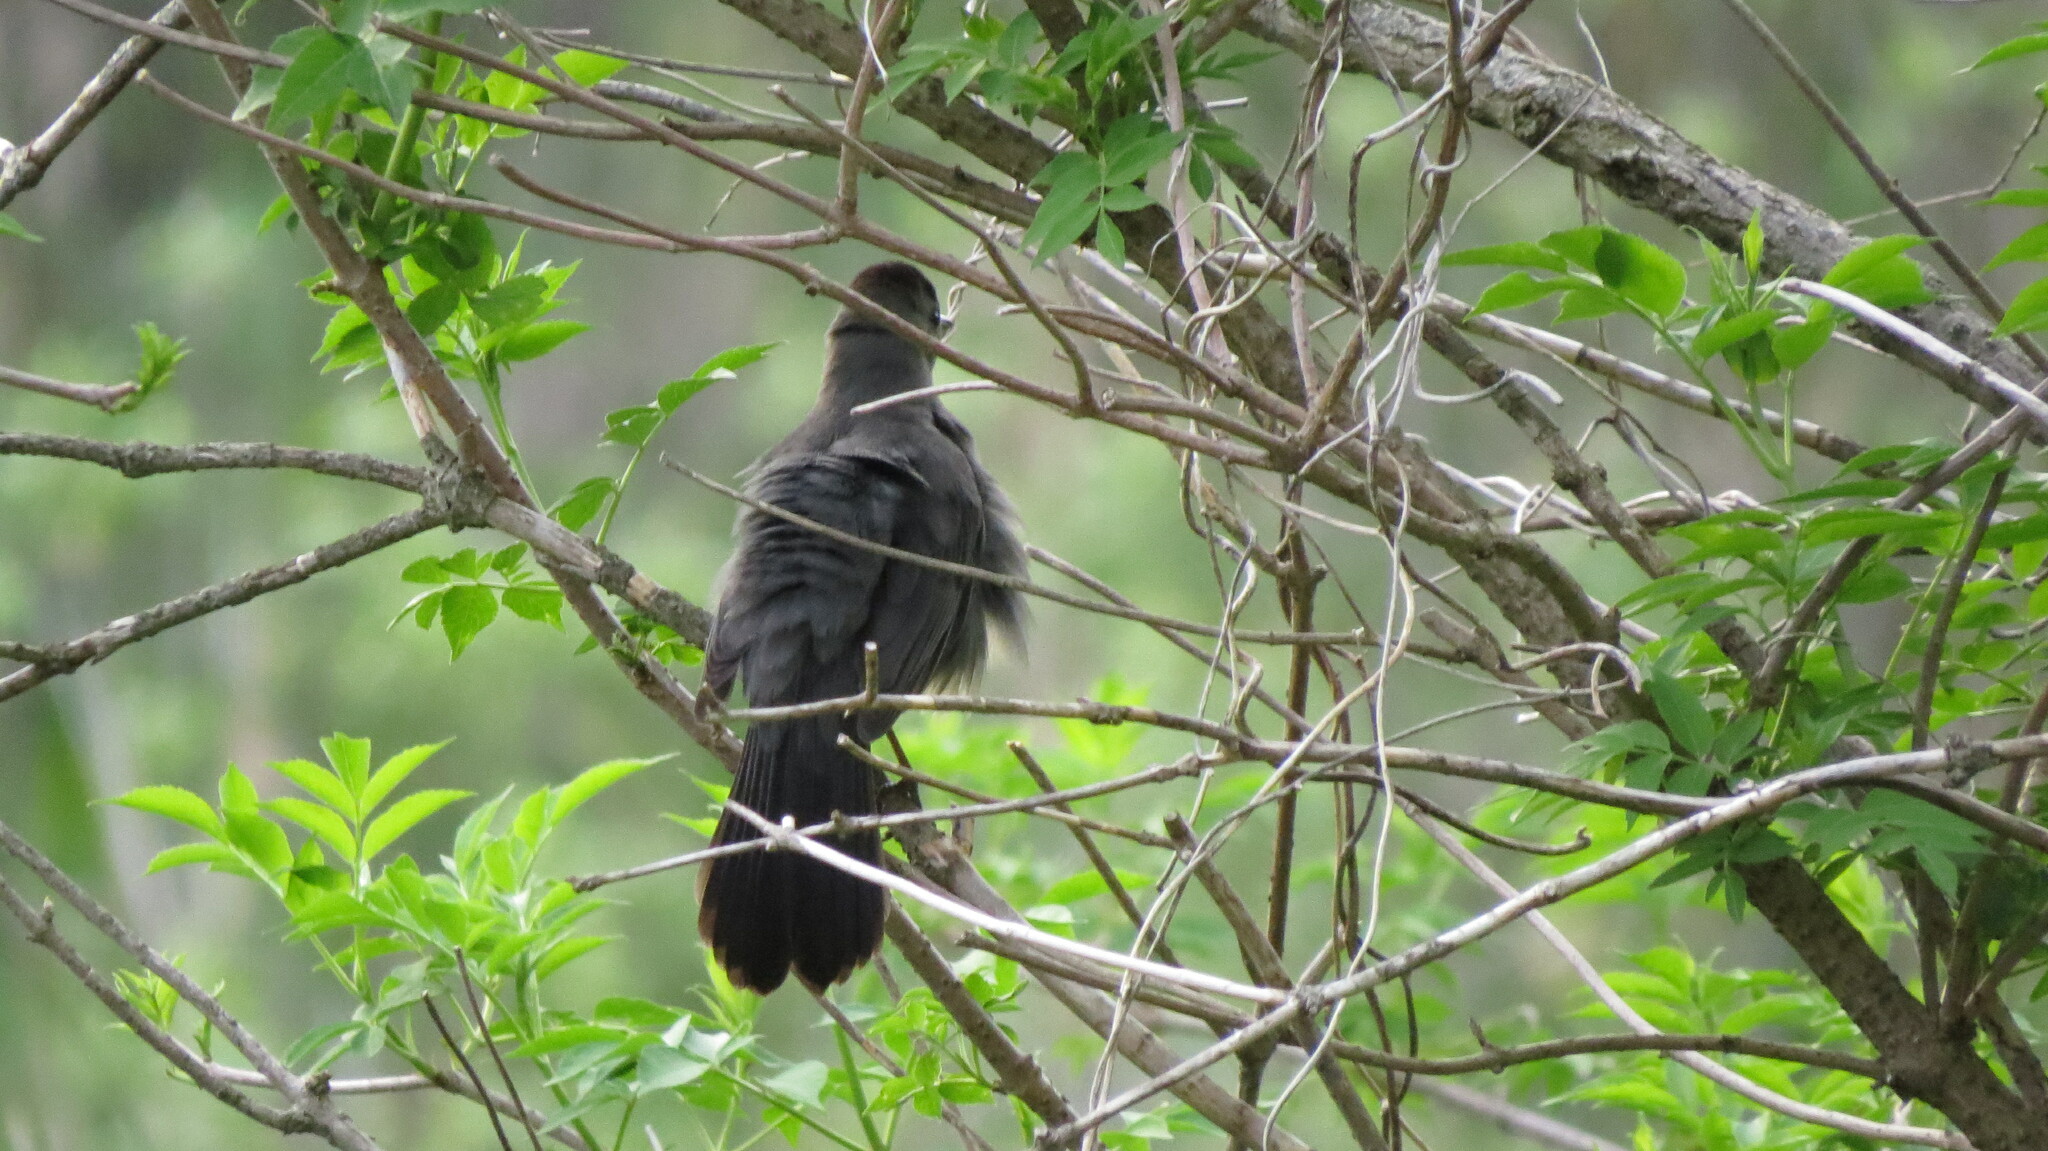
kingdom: Animalia
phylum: Chordata
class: Aves
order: Passeriformes
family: Mimidae
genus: Dumetella
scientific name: Dumetella carolinensis
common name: Gray catbird
